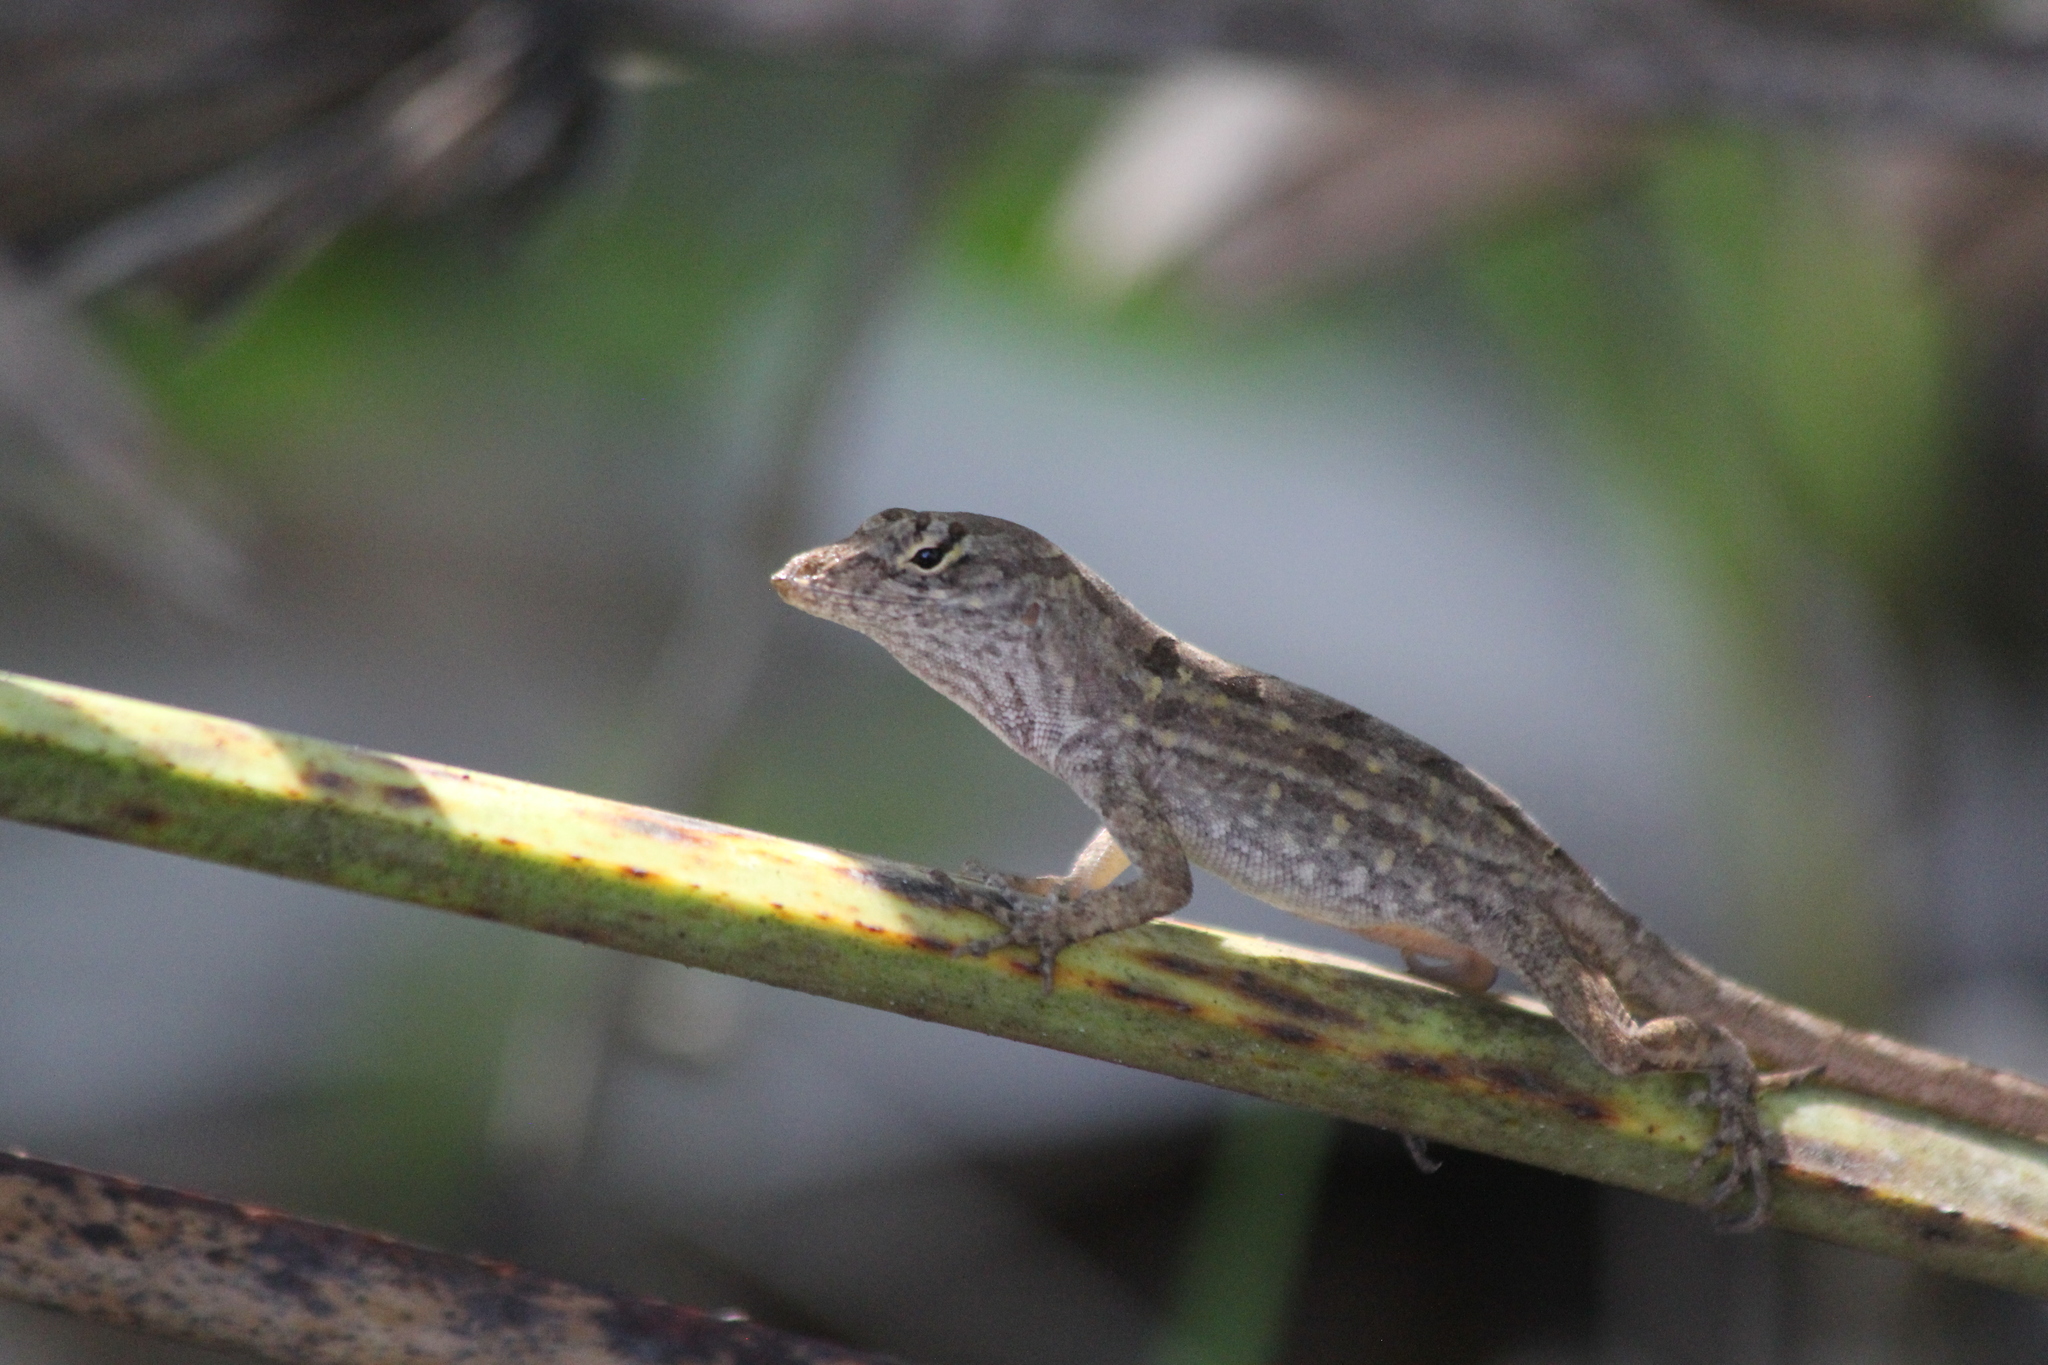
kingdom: Animalia
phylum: Chordata
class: Squamata
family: Dactyloidae
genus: Anolis
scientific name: Anolis sagrei
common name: Brown anole
